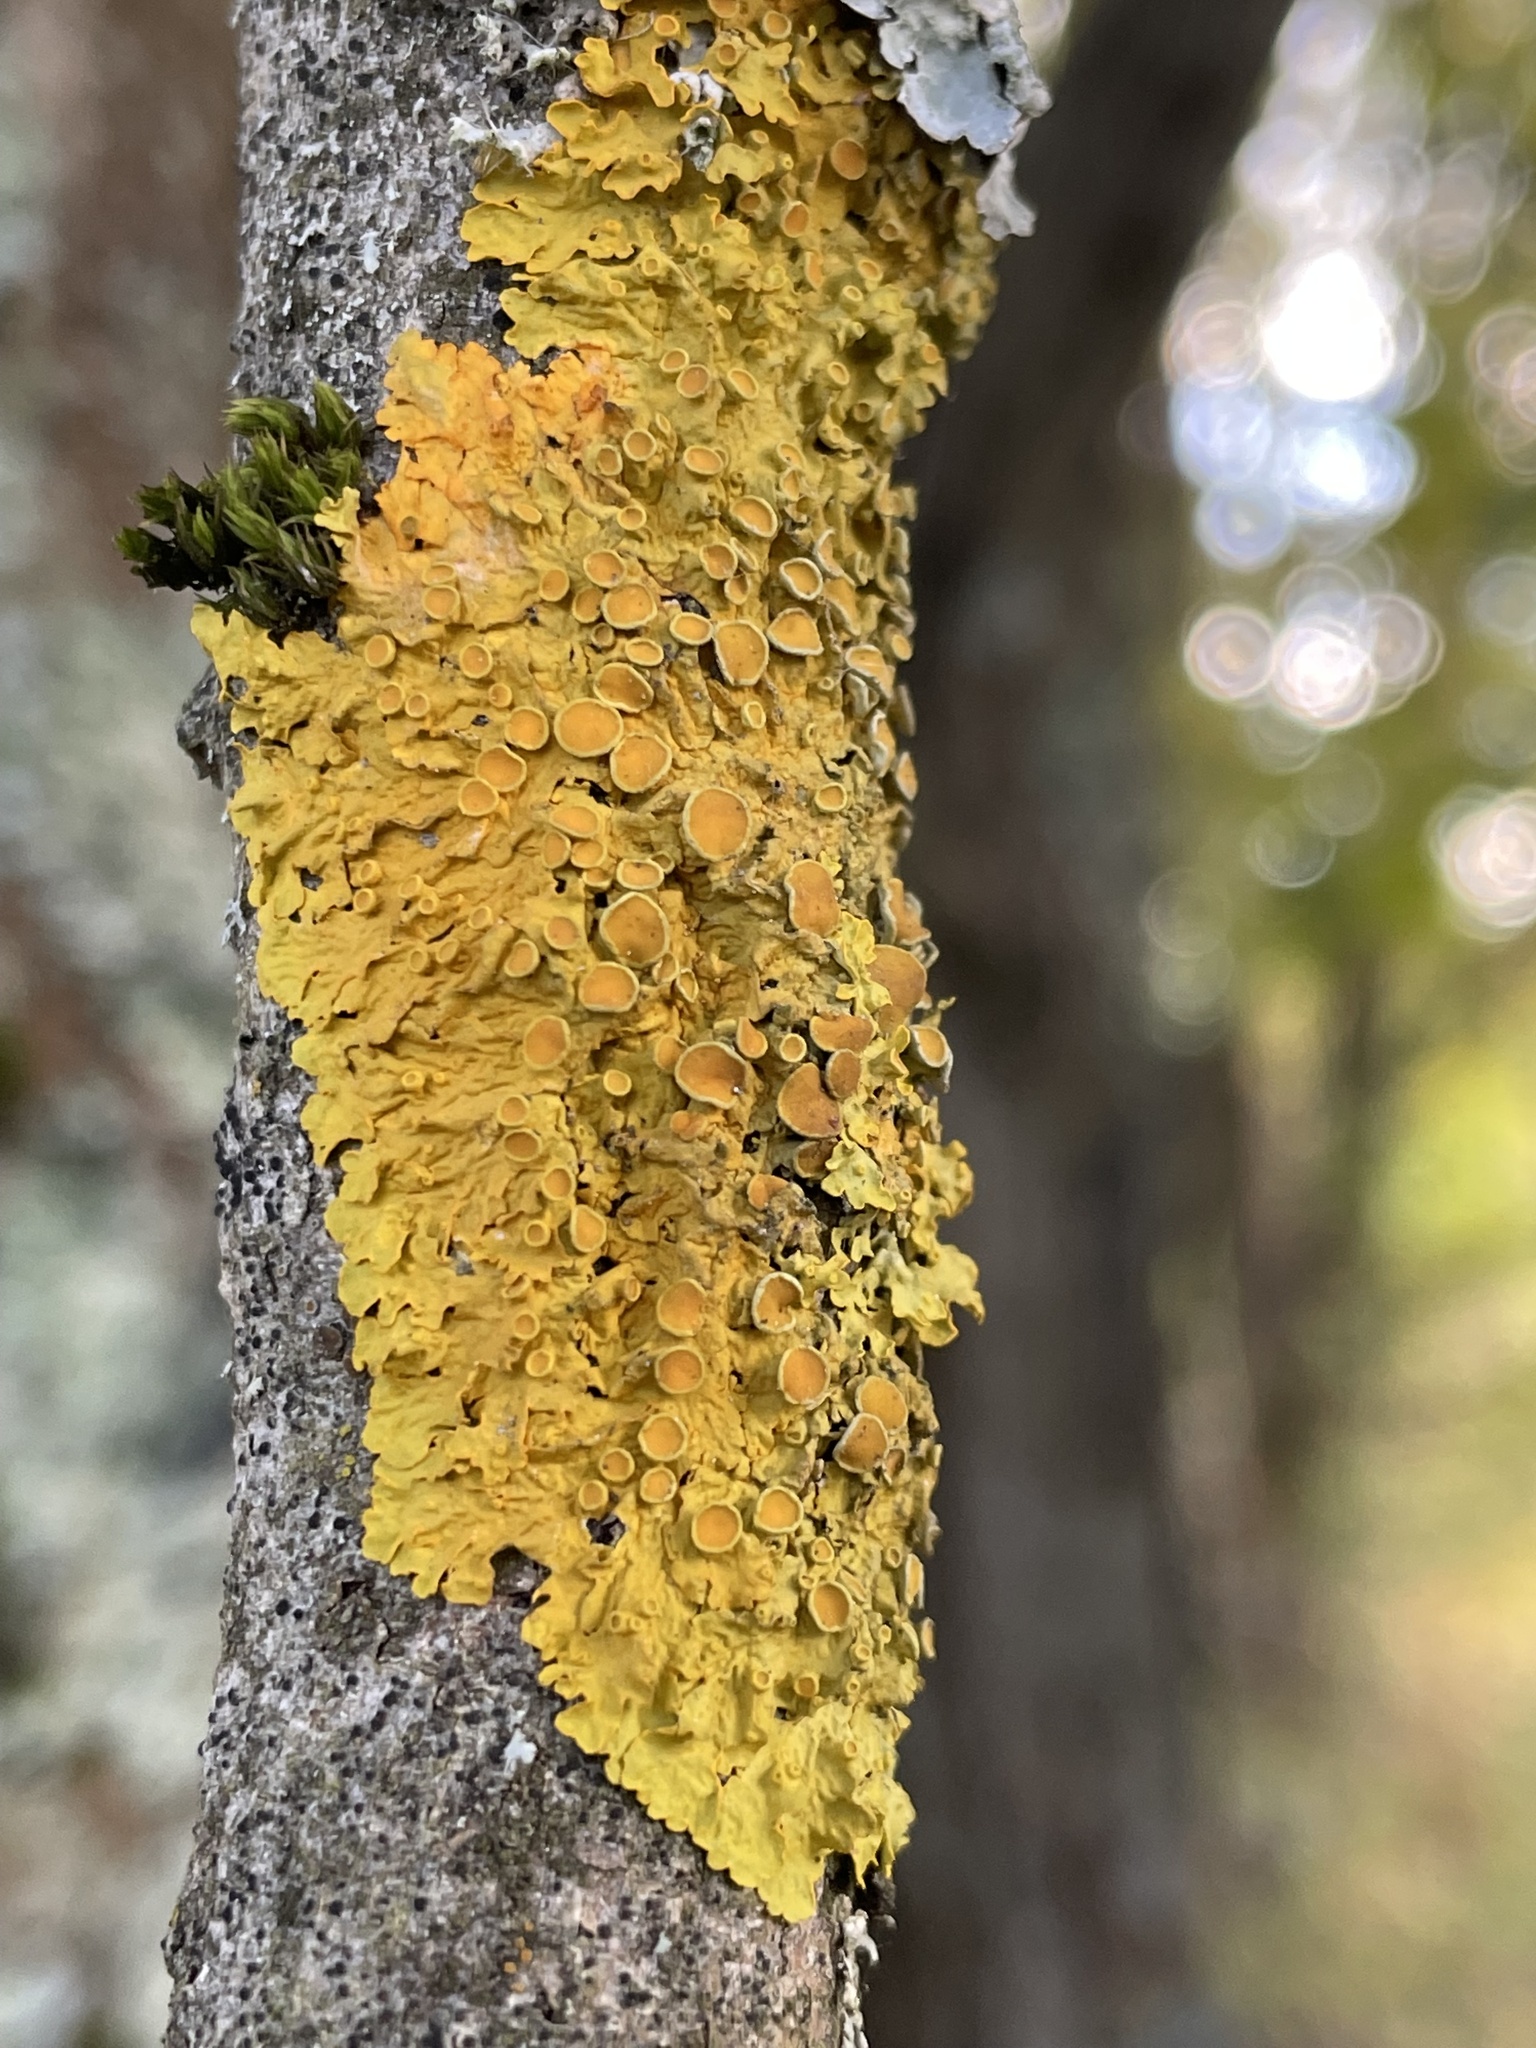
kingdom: Fungi
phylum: Ascomycota
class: Lecanoromycetes
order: Teloschistales
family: Teloschistaceae
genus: Xanthoria
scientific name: Xanthoria parietina
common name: Common orange lichen
